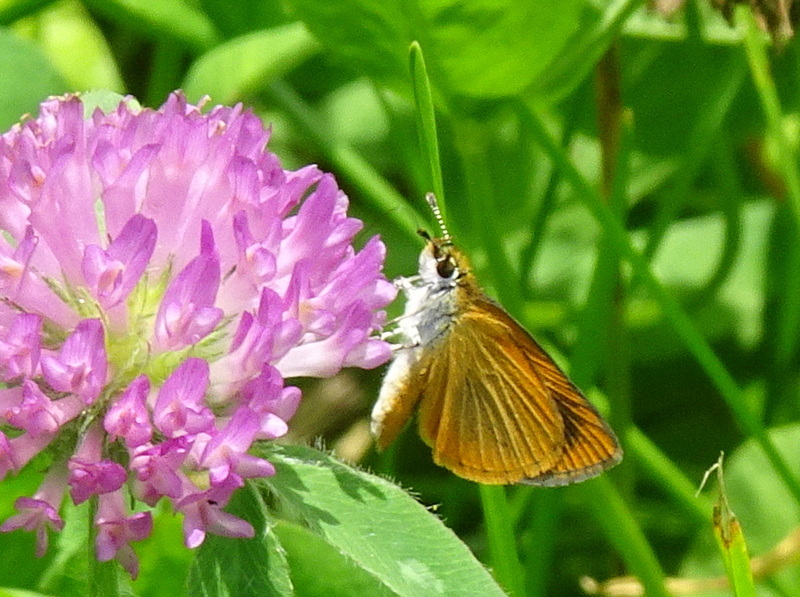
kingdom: Animalia
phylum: Arthropoda
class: Insecta
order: Lepidoptera
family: Hesperiidae
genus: Ancyloxypha
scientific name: Ancyloxypha numitor
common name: Least skipper
